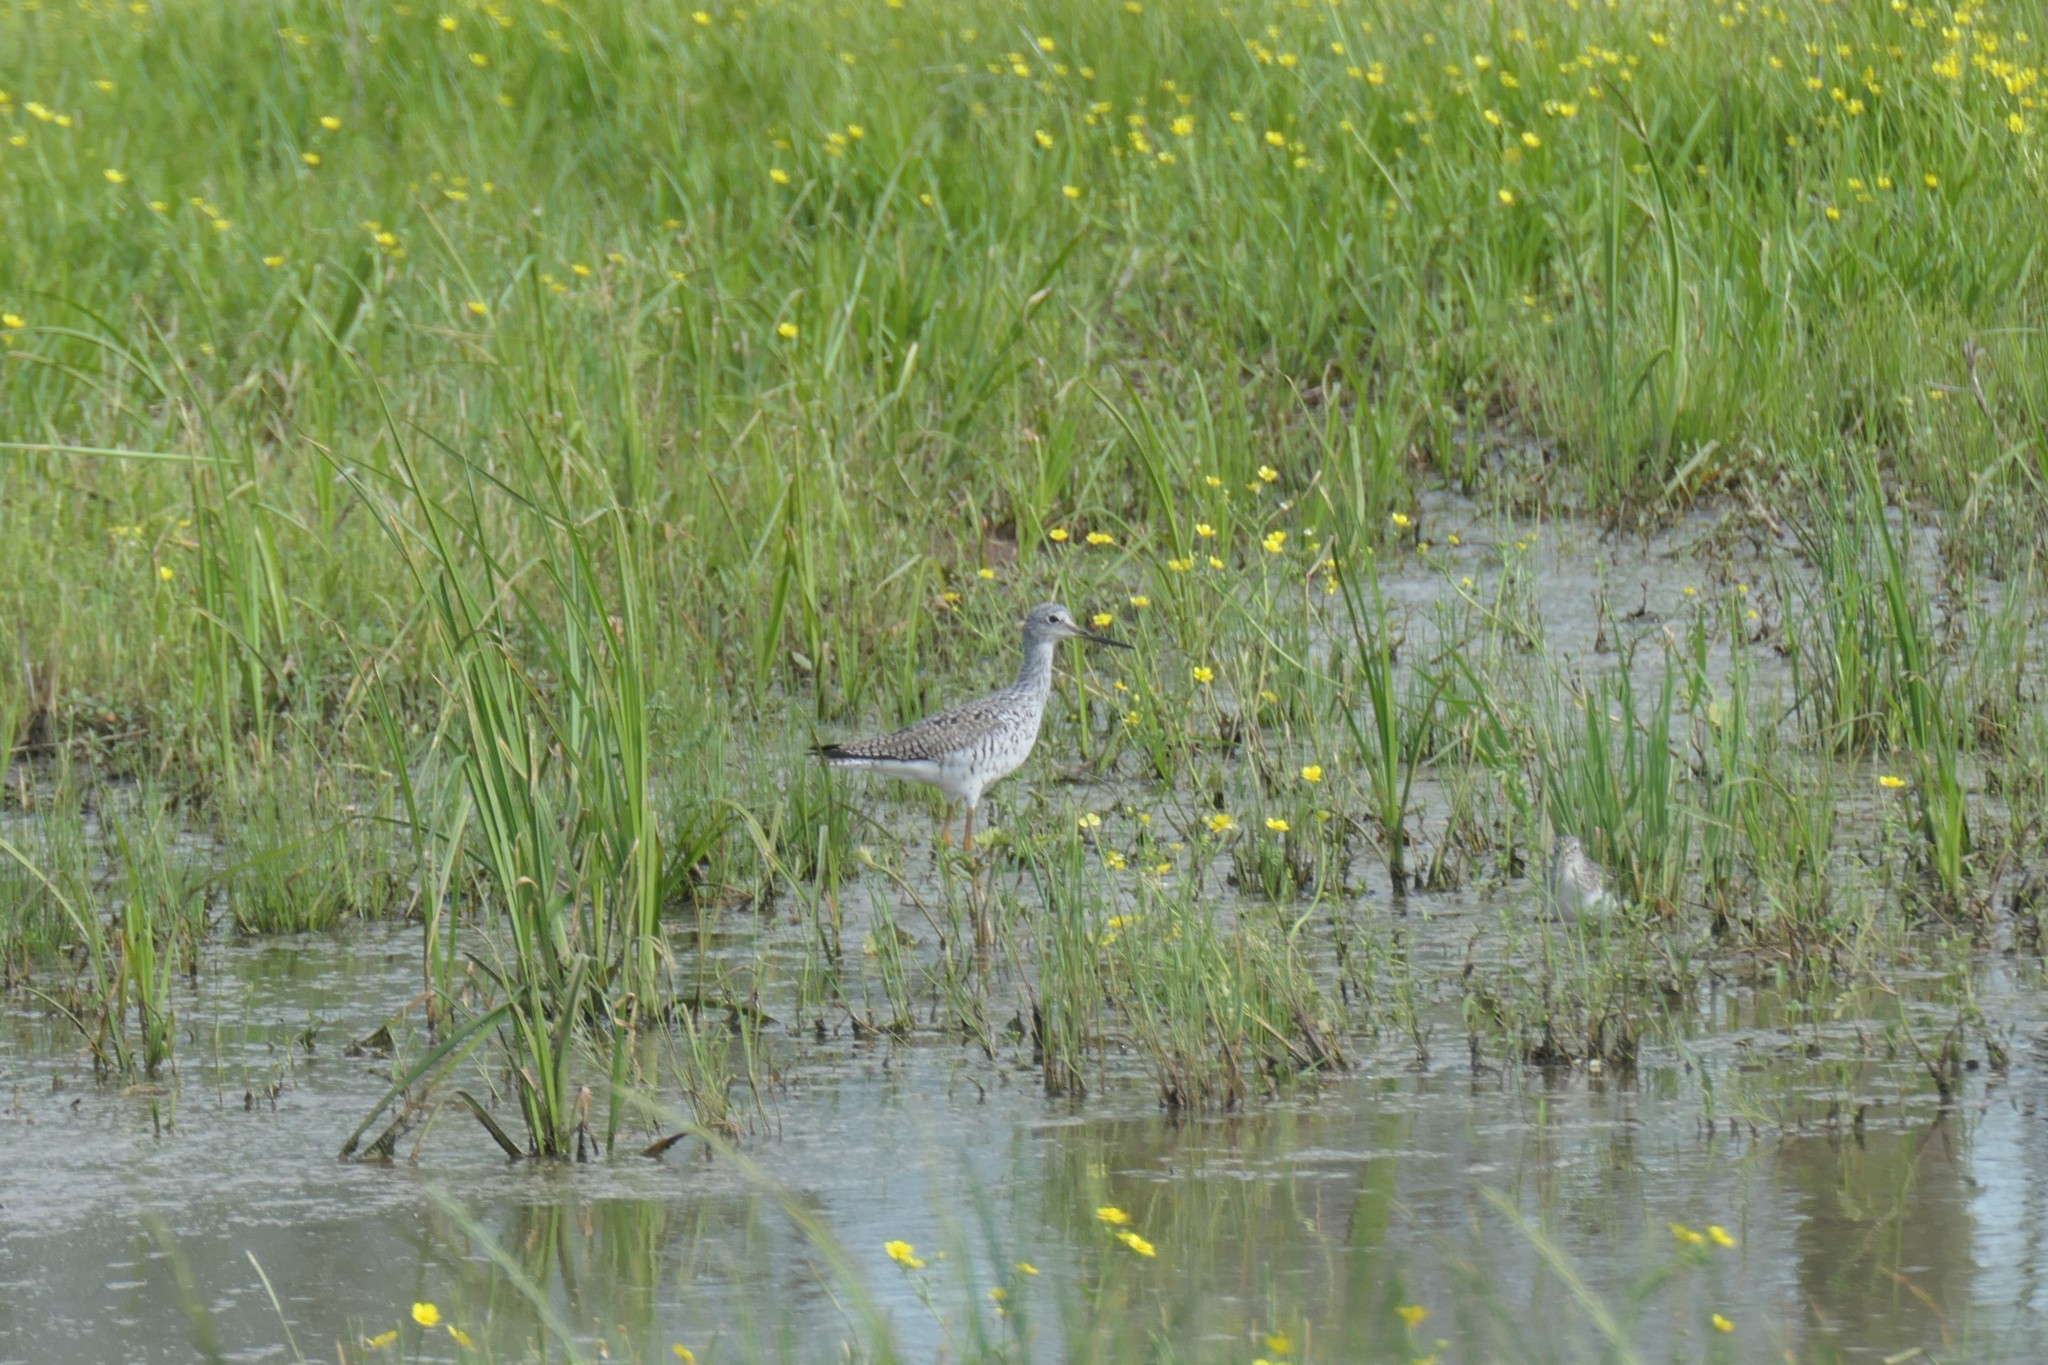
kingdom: Animalia
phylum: Chordata
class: Aves
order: Charadriiformes
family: Scolopacidae
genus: Tringa
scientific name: Tringa melanoleuca
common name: Greater yellowlegs
